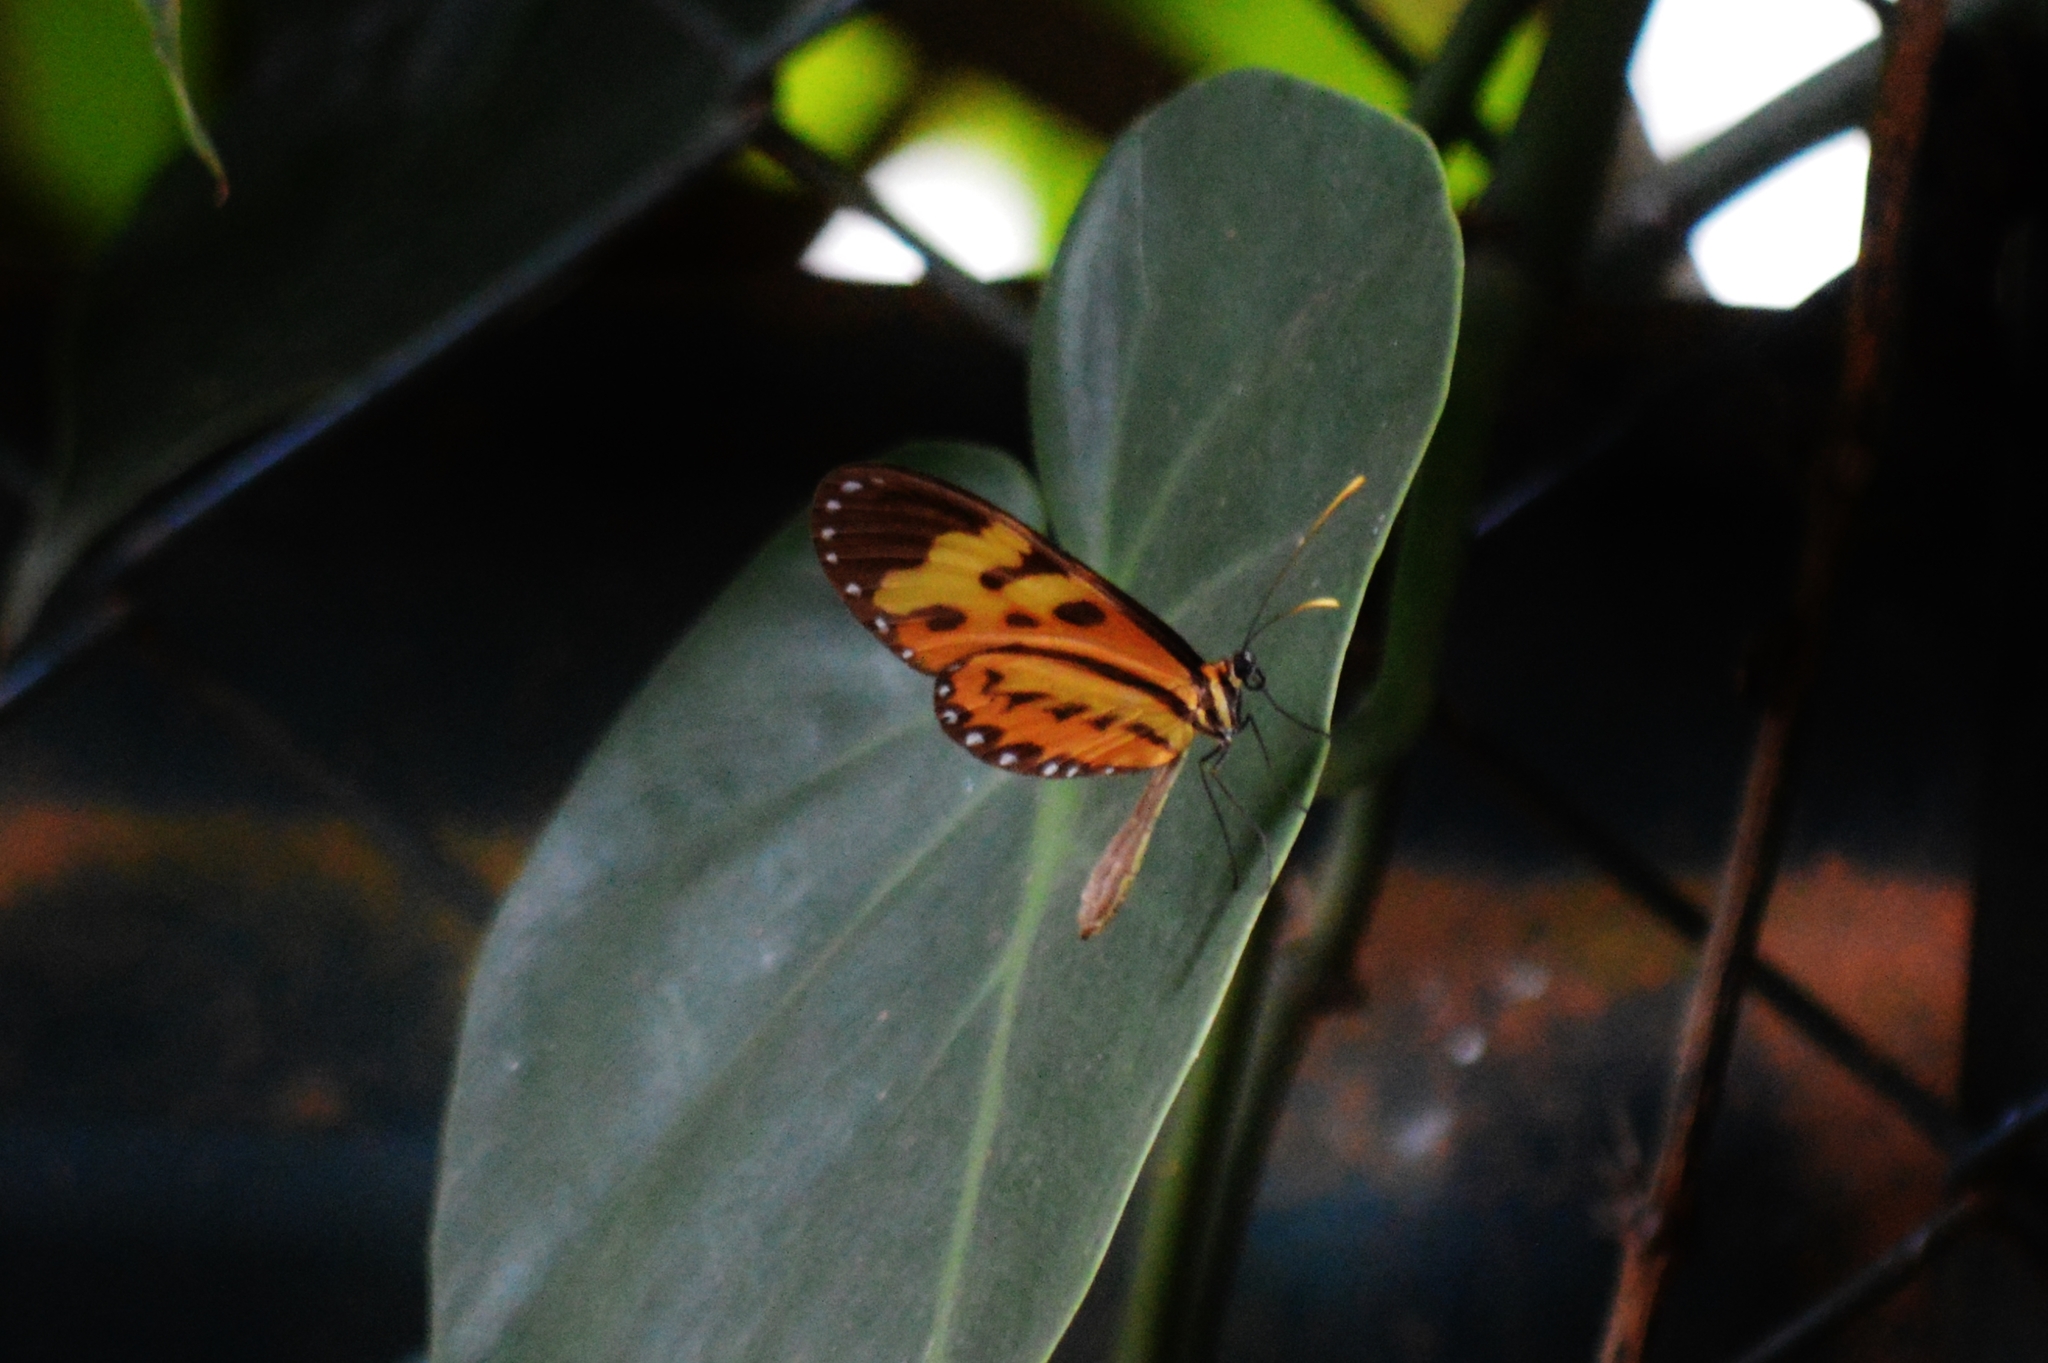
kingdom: Animalia
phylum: Arthropoda
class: Insecta
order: Lepidoptera
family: Nymphalidae
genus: Mechanitis
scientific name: Mechanitis polymnia
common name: Disturbed tigerwing
